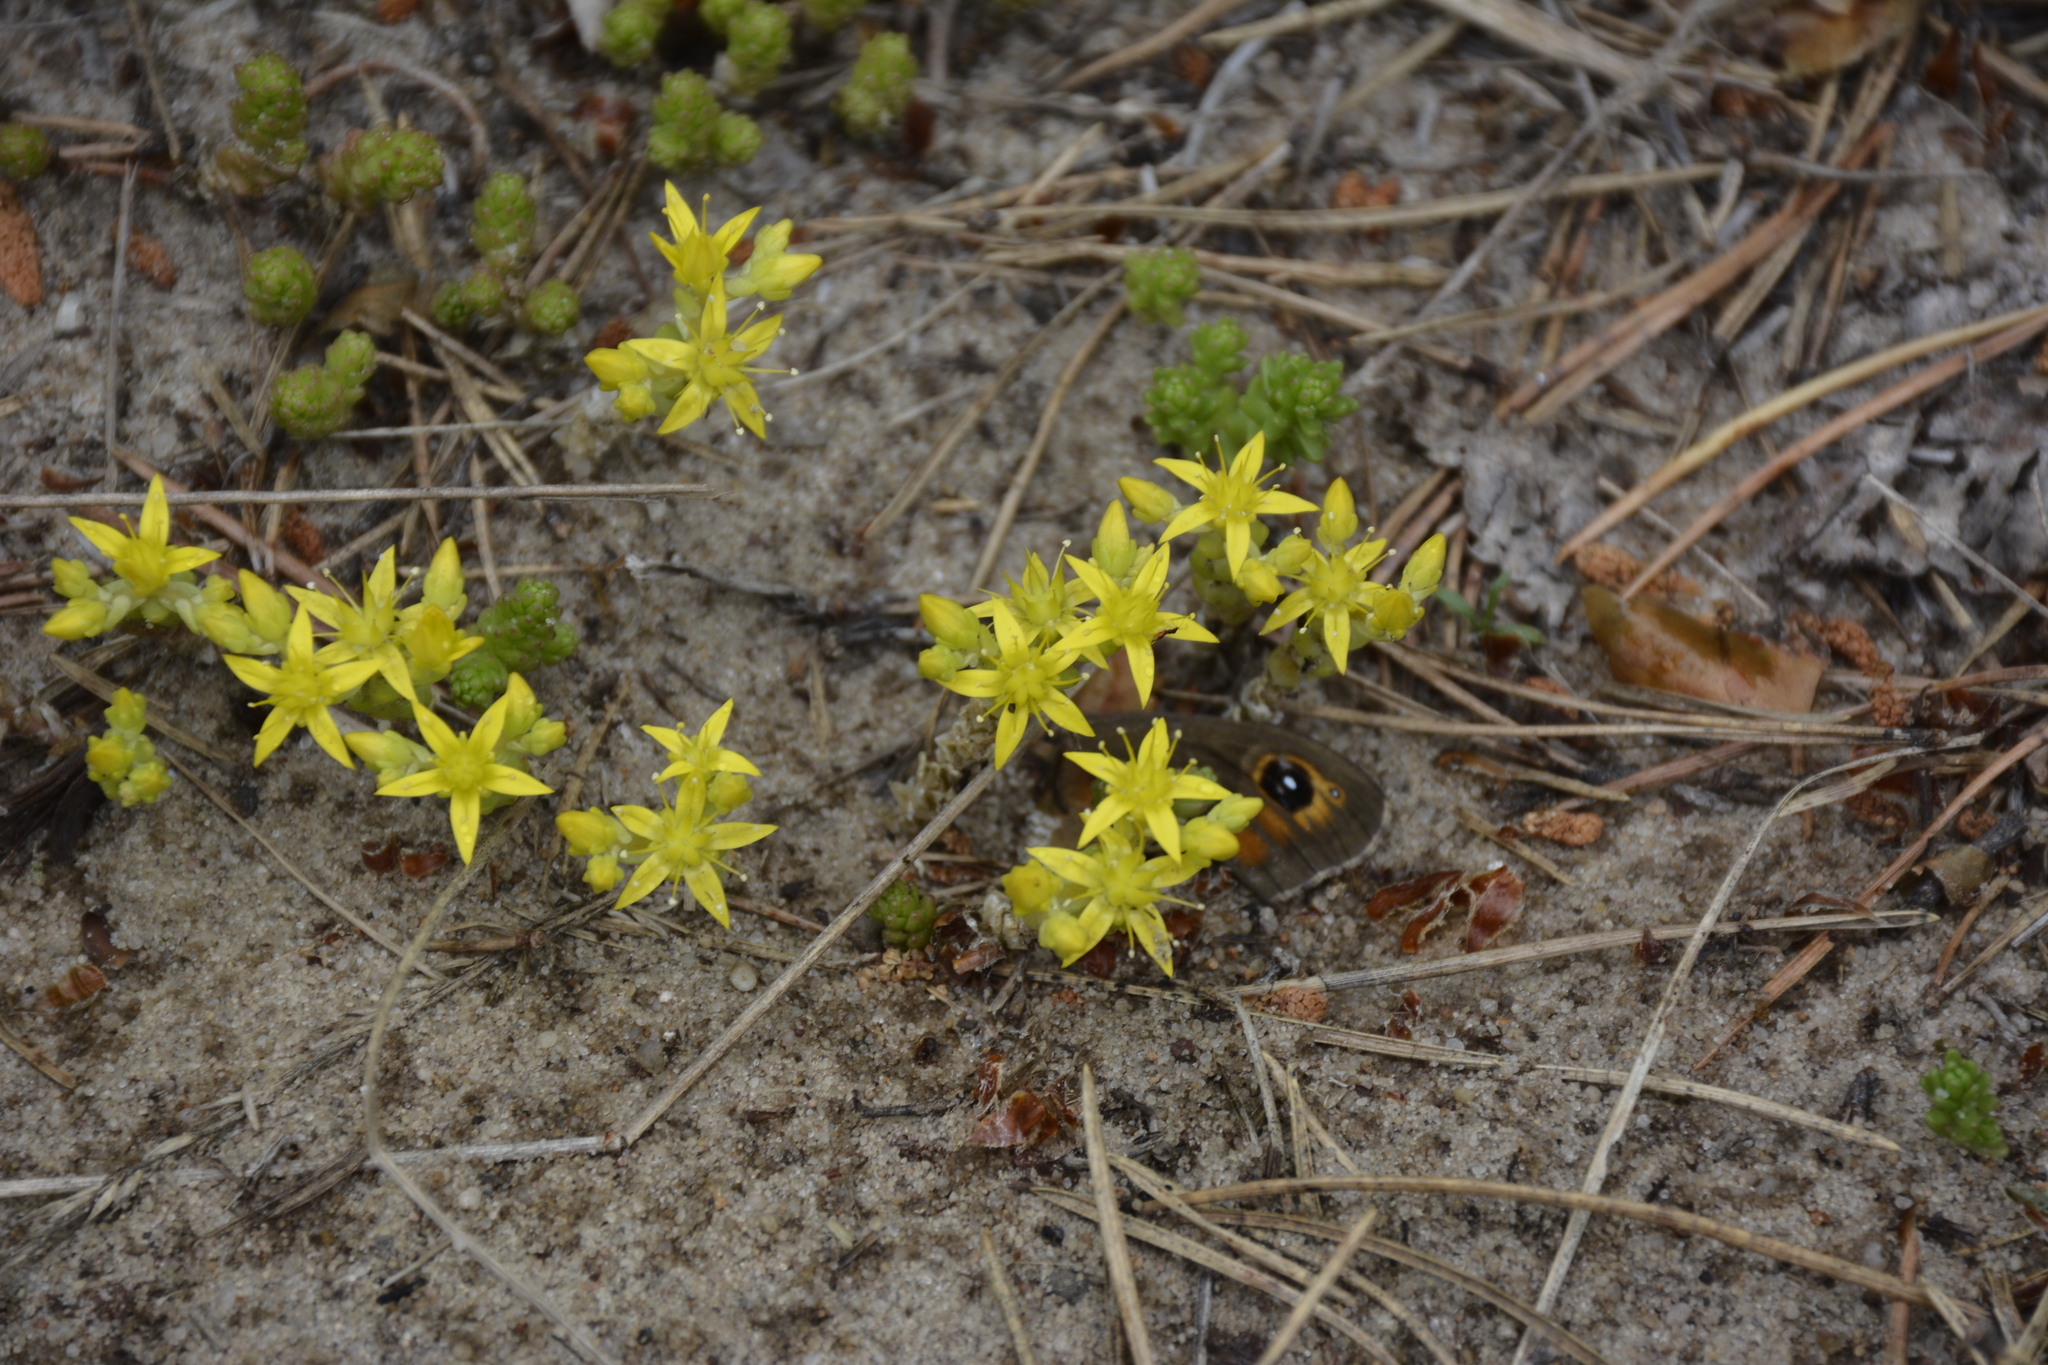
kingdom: Plantae
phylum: Tracheophyta
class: Magnoliopsida
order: Saxifragales
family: Crassulaceae
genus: Sedum
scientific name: Sedum acre
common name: Biting stonecrop
